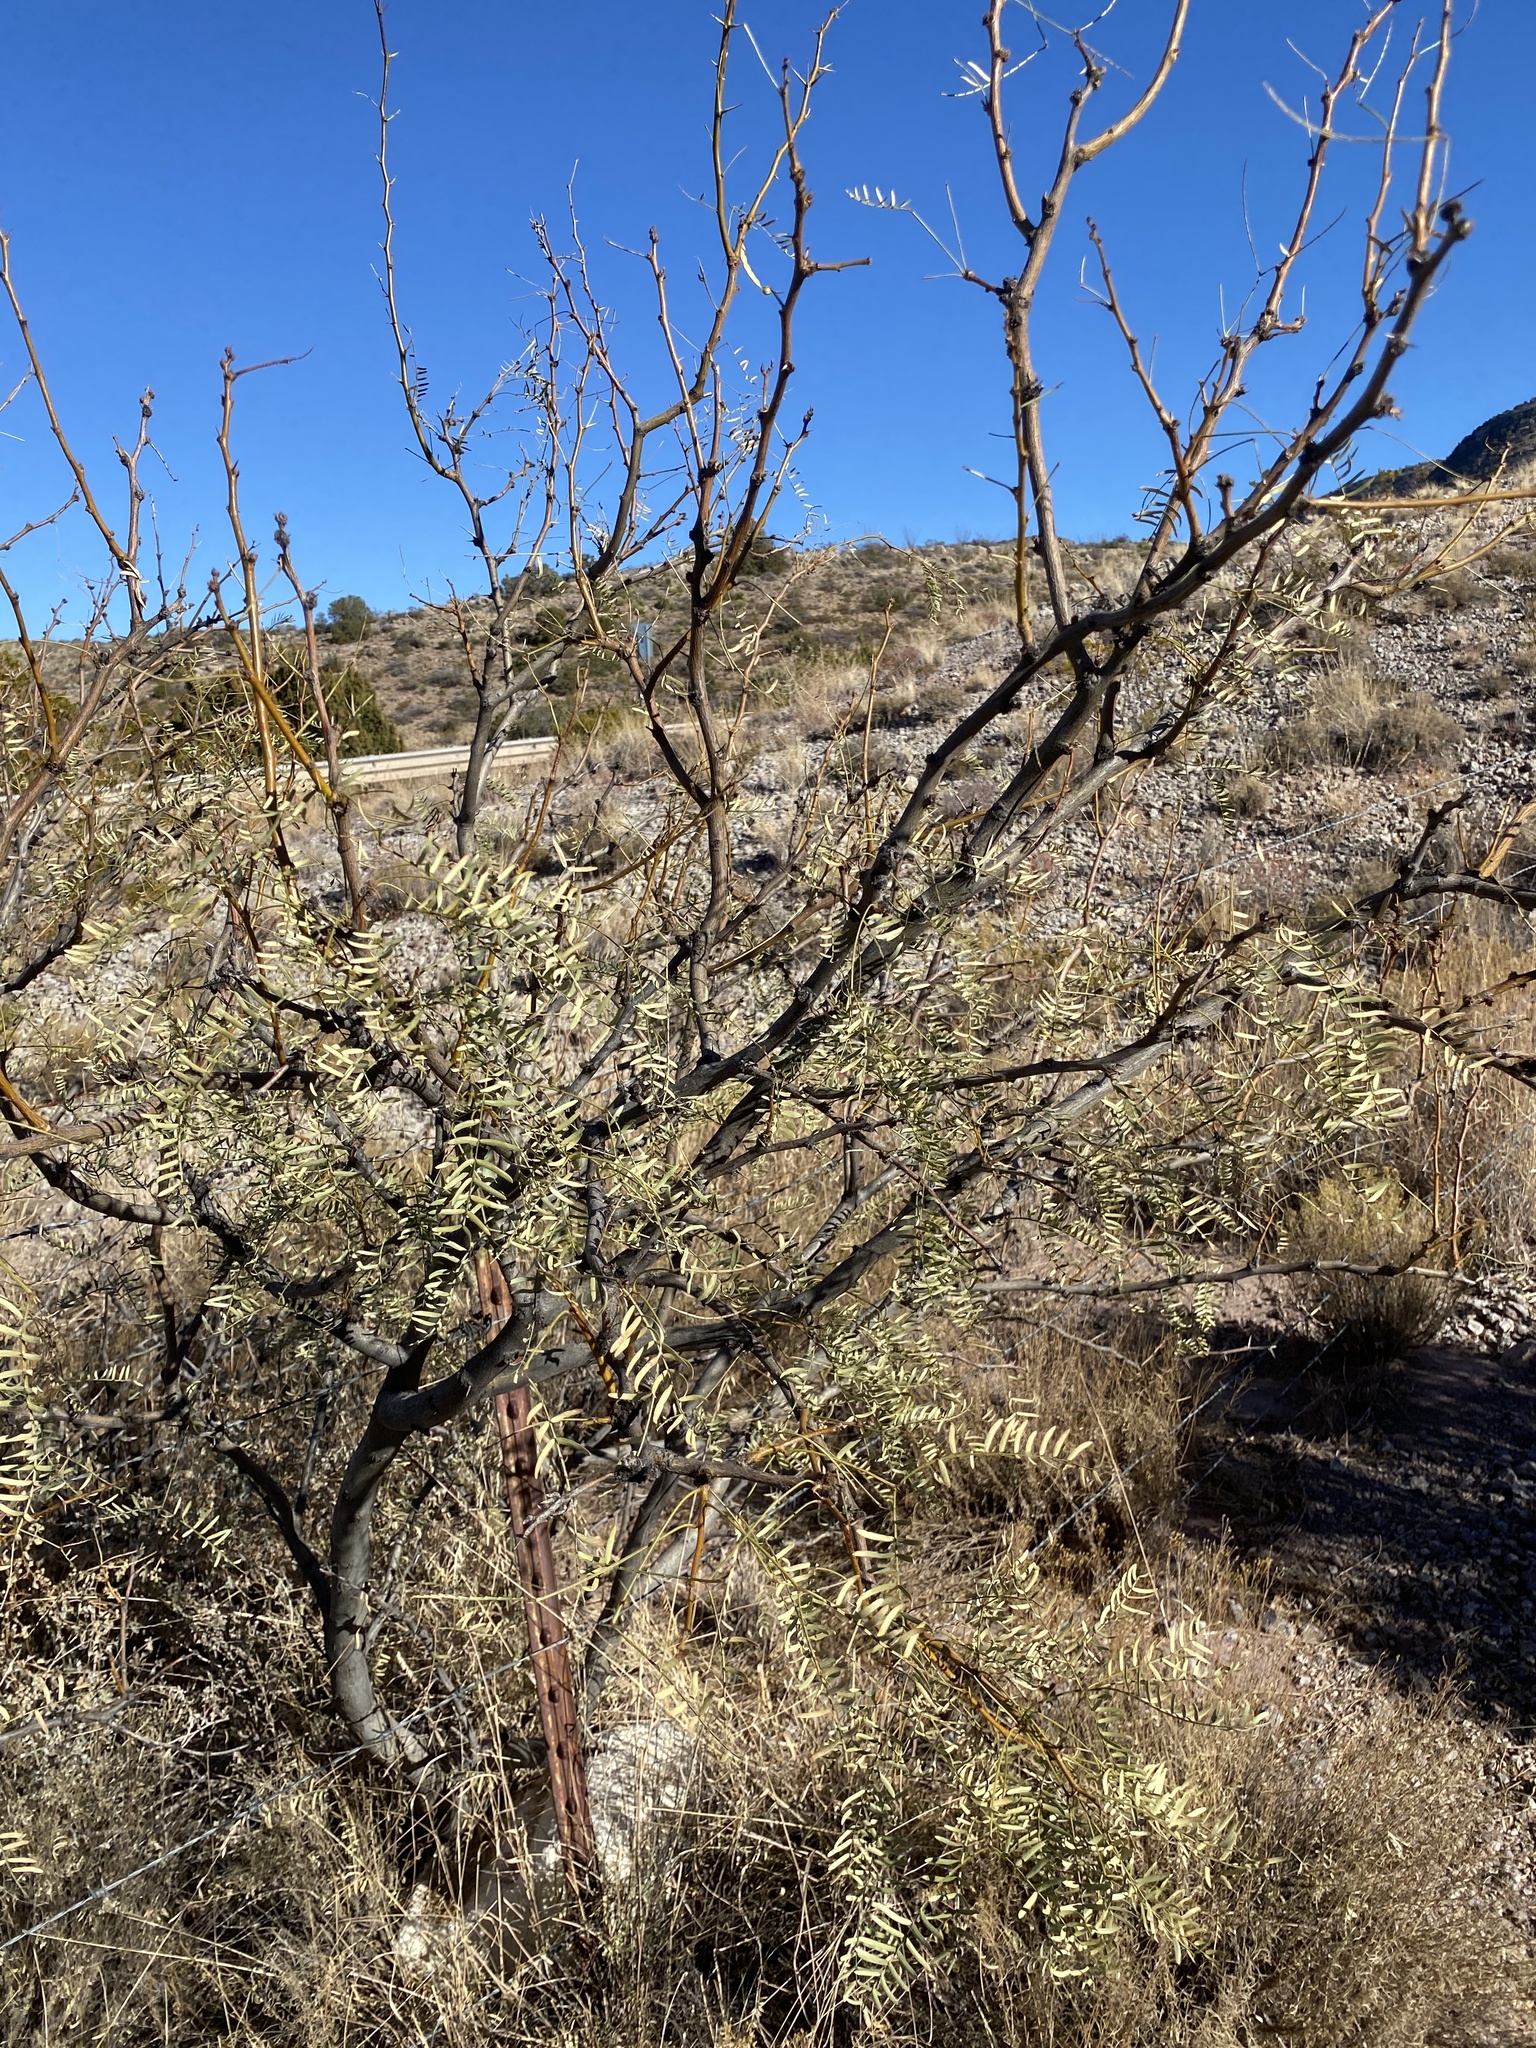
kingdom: Plantae
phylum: Tracheophyta
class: Magnoliopsida
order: Fabales
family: Fabaceae
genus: Prosopis
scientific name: Prosopis glandulosa
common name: Honey mesquite
